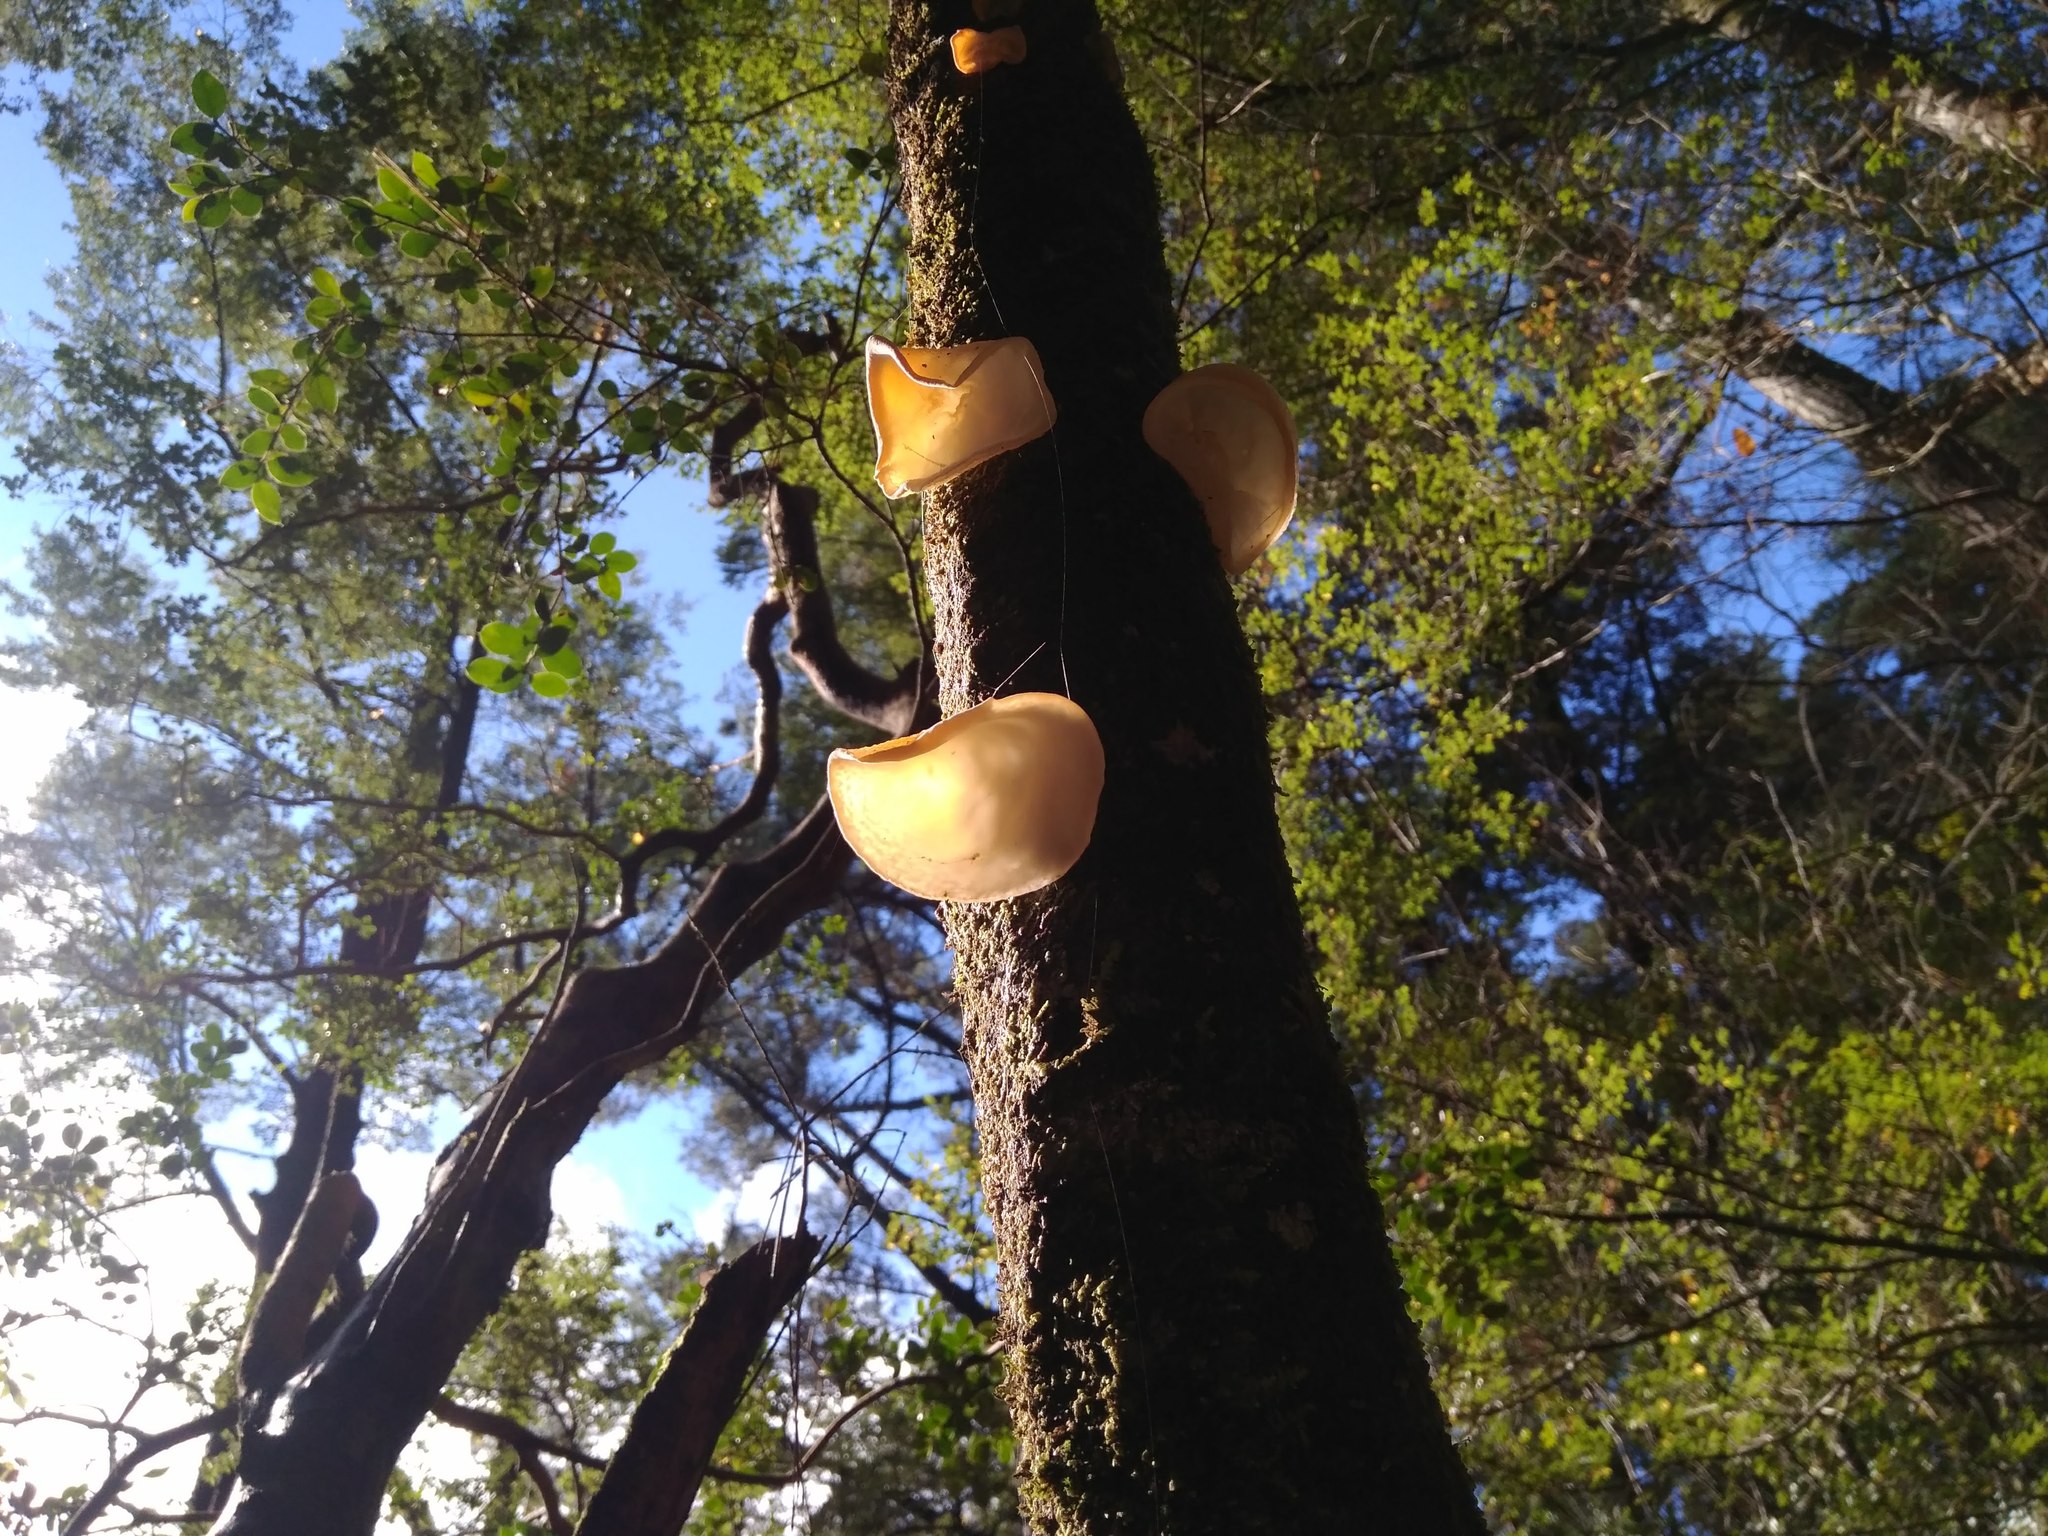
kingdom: Fungi
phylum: Basidiomycota
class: Agaricomycetes
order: Russulales
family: Stereaceae
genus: Aleurodiscus
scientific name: Aleurodiscus vitellinus
